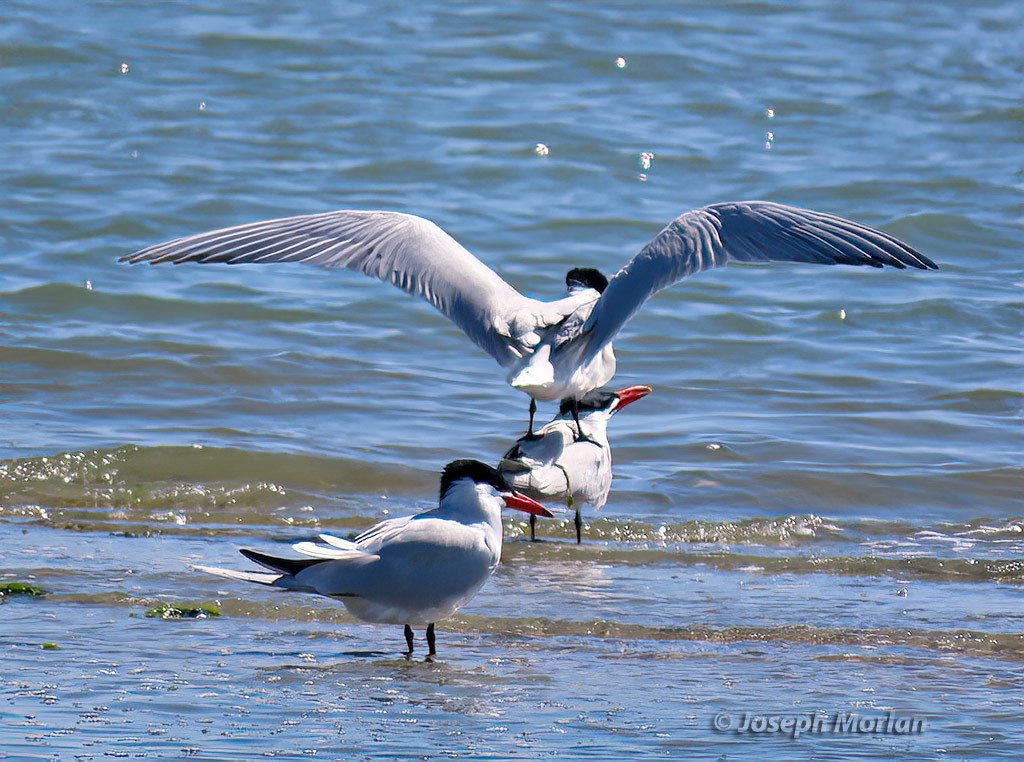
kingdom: Animalia
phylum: Chordata
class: Aves
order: Charadriiformes
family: Laridae
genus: Hydroprogne
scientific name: Hydroprogne caspia
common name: Caspian tern
